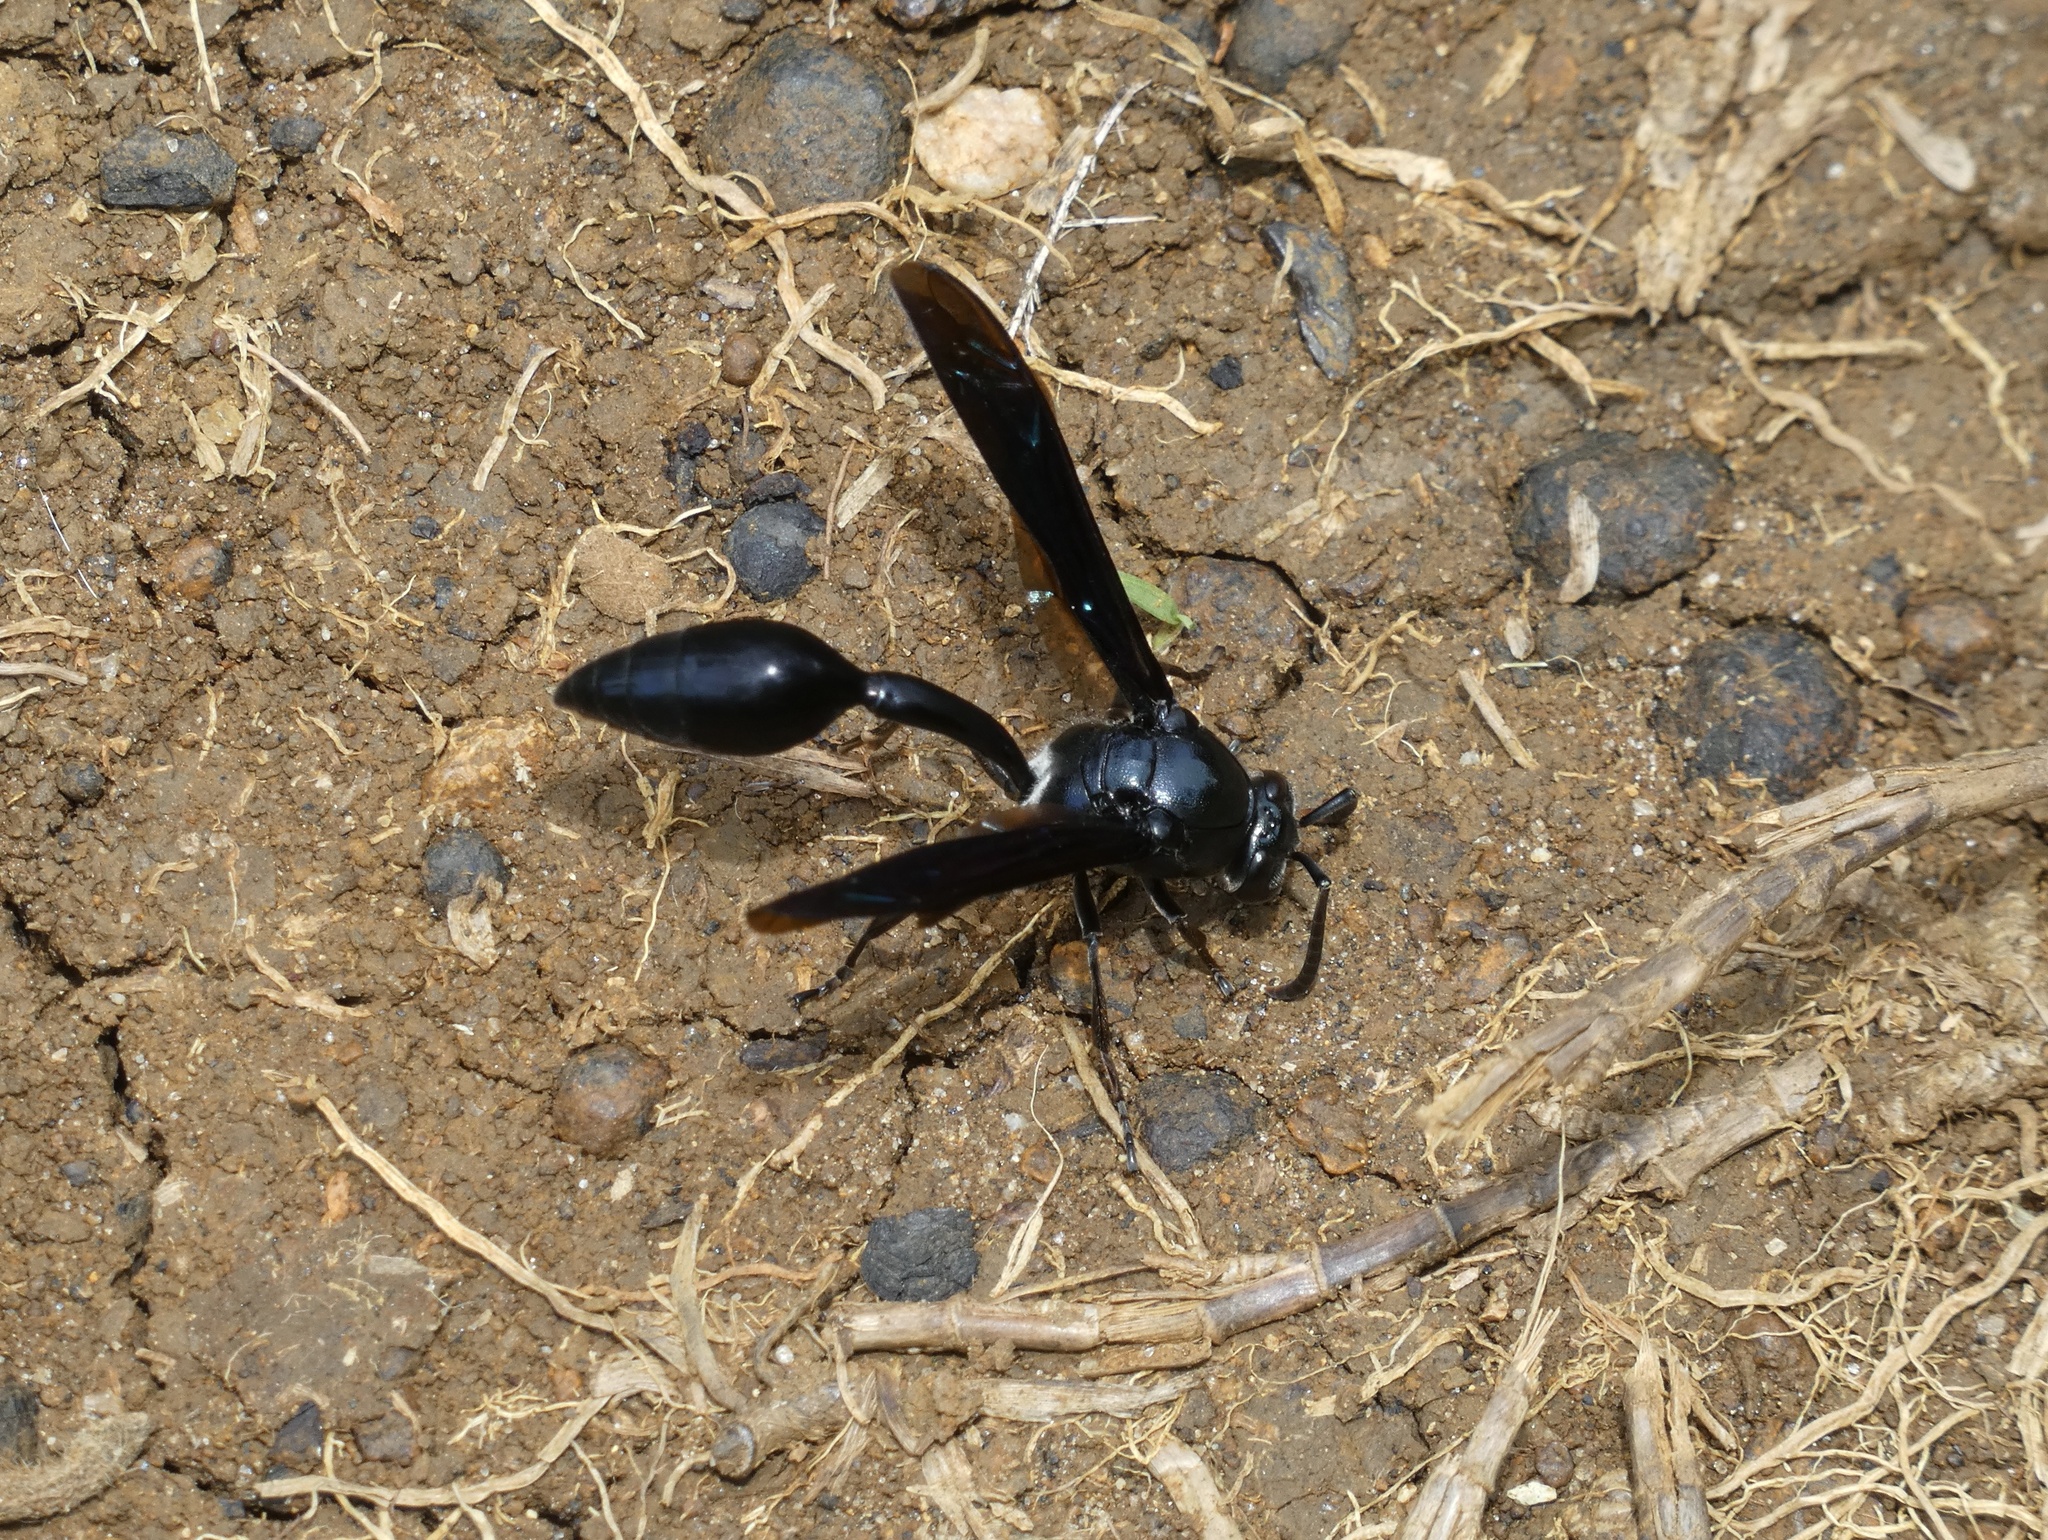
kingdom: Animalia
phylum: Arthropoda
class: Insecta
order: Hymenoptera
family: Eumenidae
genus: Phimenes
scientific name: Phimenes curvatus
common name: Black delta vespid wasp
